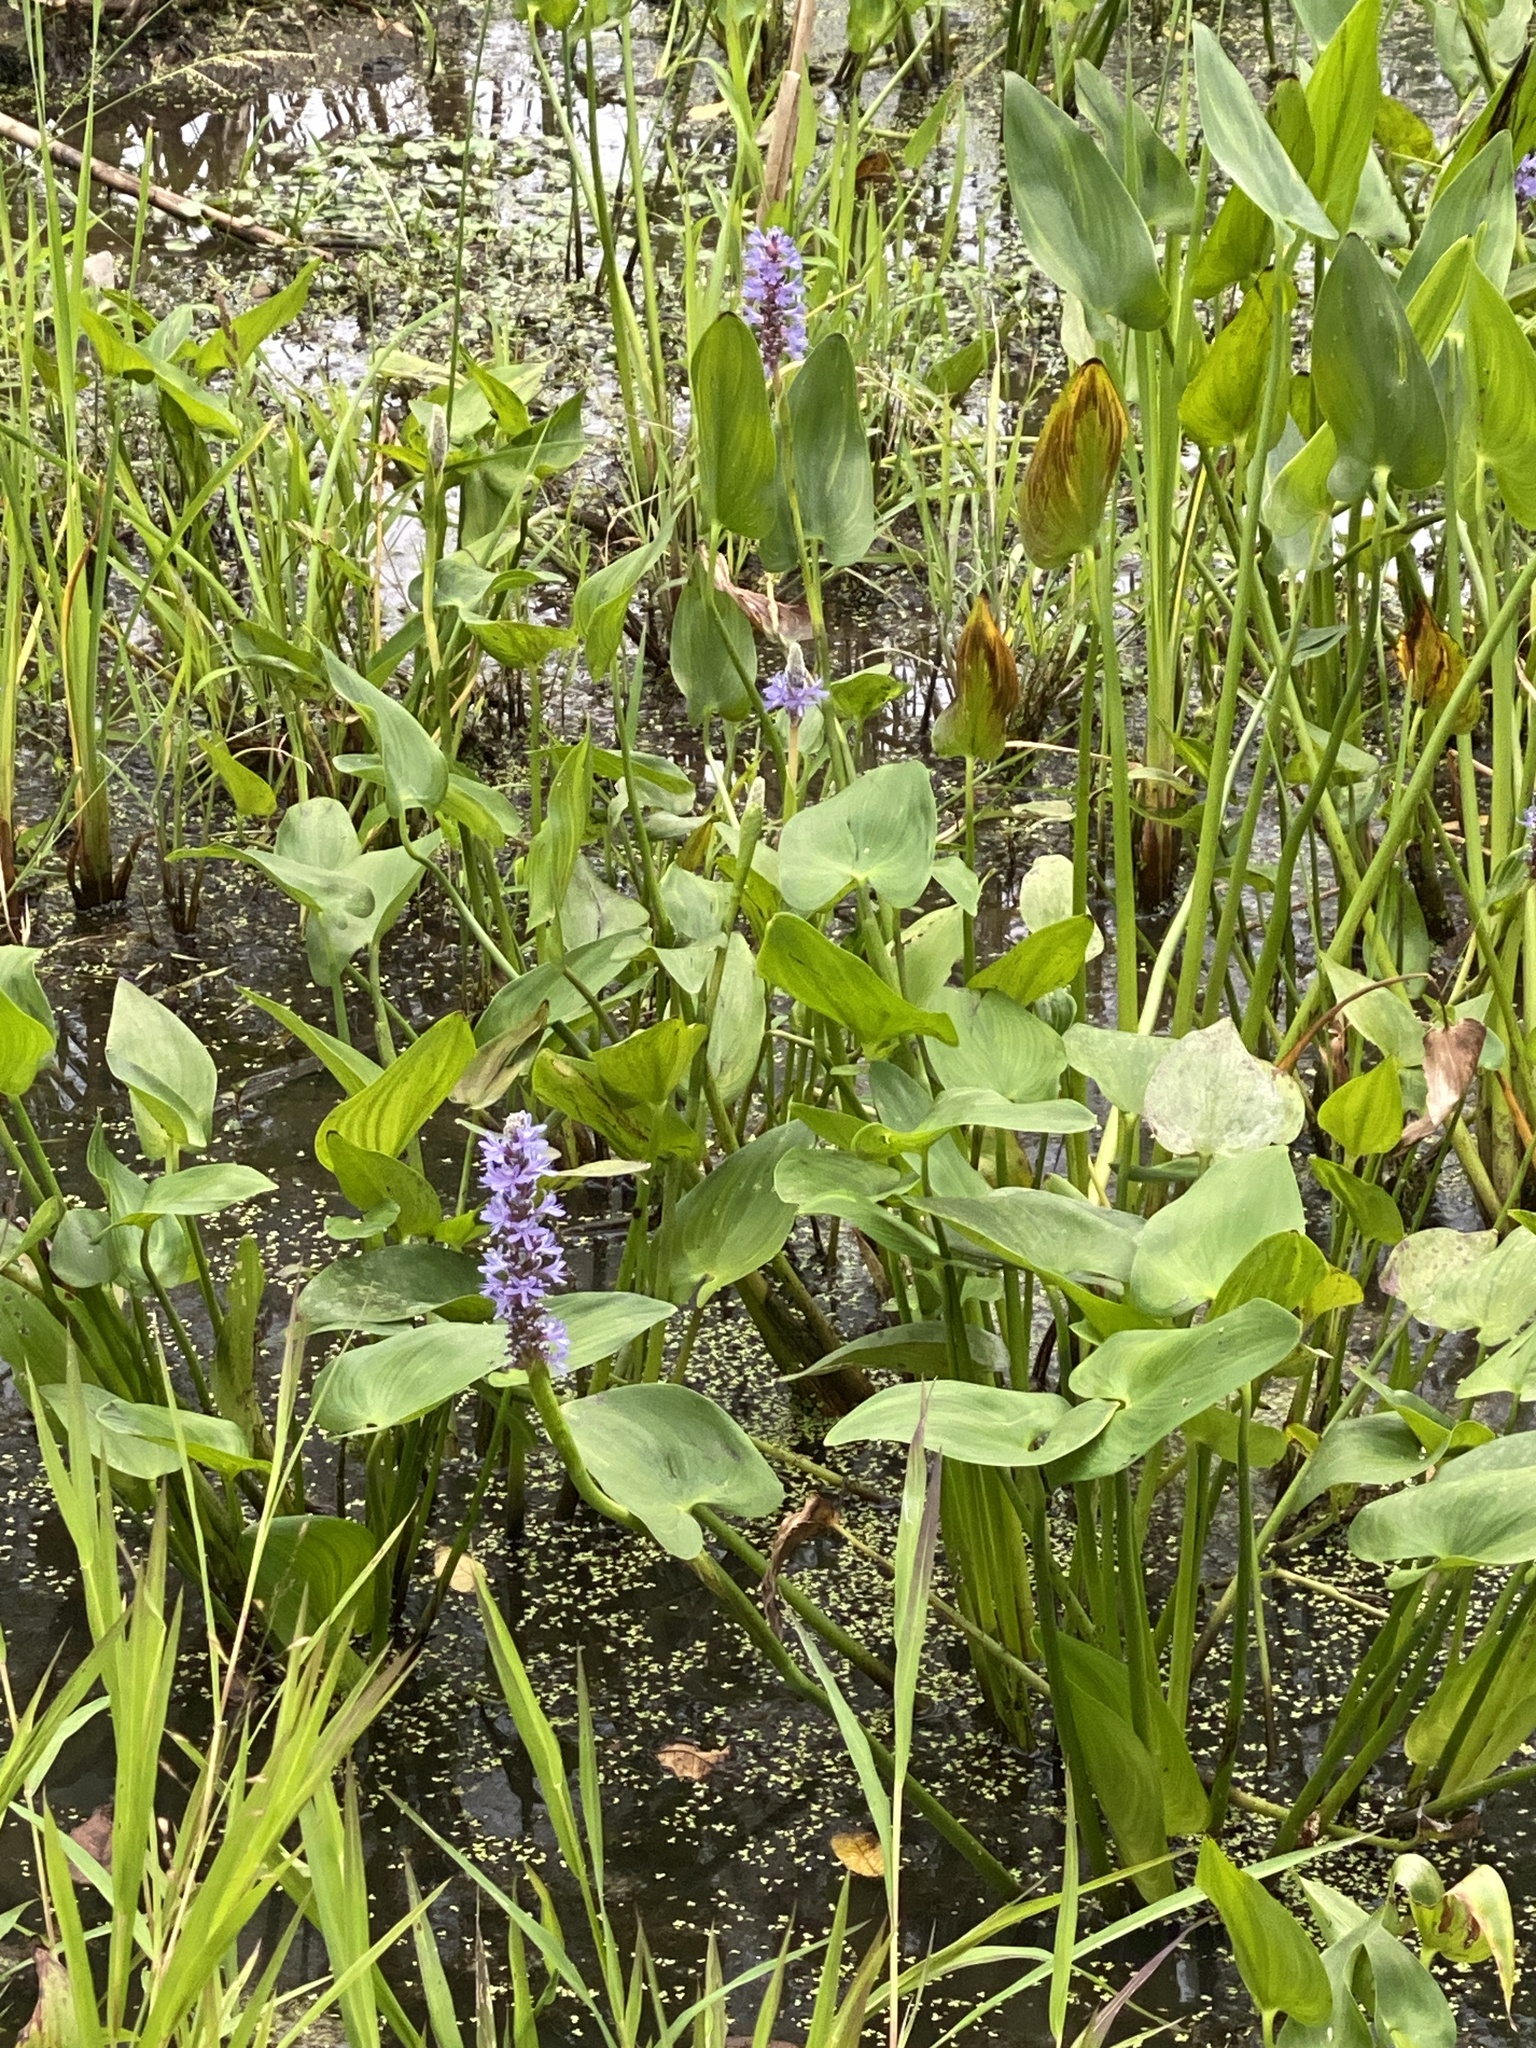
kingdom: Plantae
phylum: Tracheophyta
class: Liliopsida
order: Commelinales
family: Pontederiaceae
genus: Pontederia
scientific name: Pontederia cordata
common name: Pickerelweed
